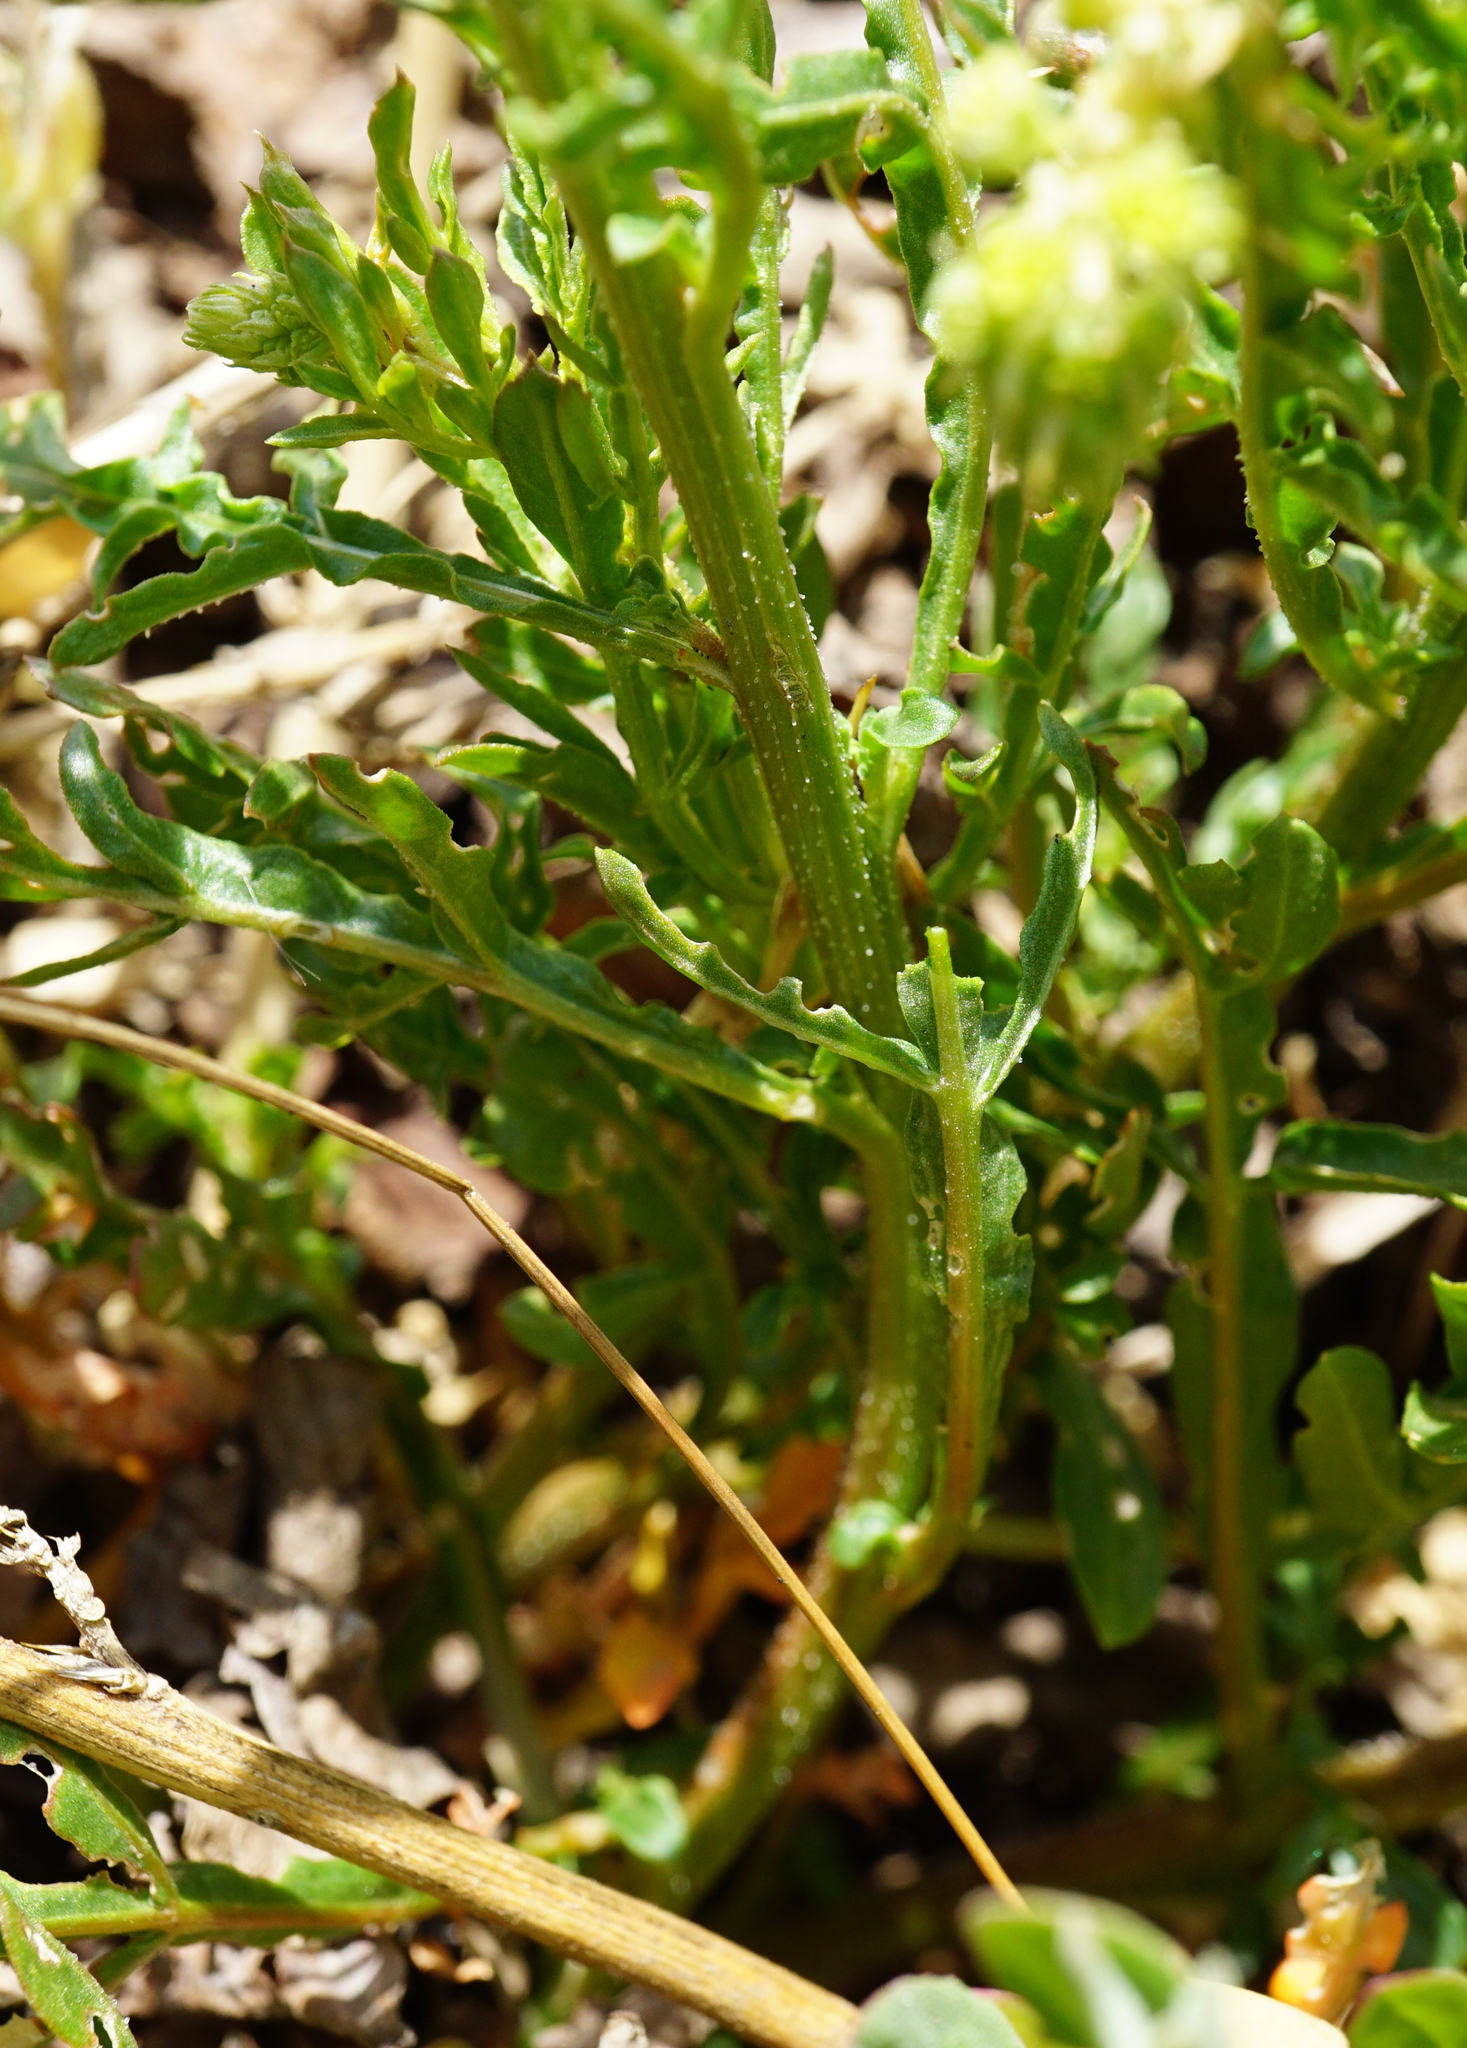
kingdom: Plantae
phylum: Tracheophyta
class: Magnoliopsida
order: Brassicales
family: Resedaceae
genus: Reseda
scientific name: Reseda lutea
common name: Wild mignonette
